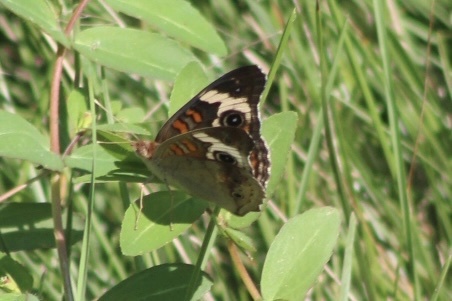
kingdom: Animalia
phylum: Arthropoda
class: Insecta
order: Lepidoptera
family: Nymphalidae
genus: Junonia
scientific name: Junonia coenia
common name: Common buckeye
